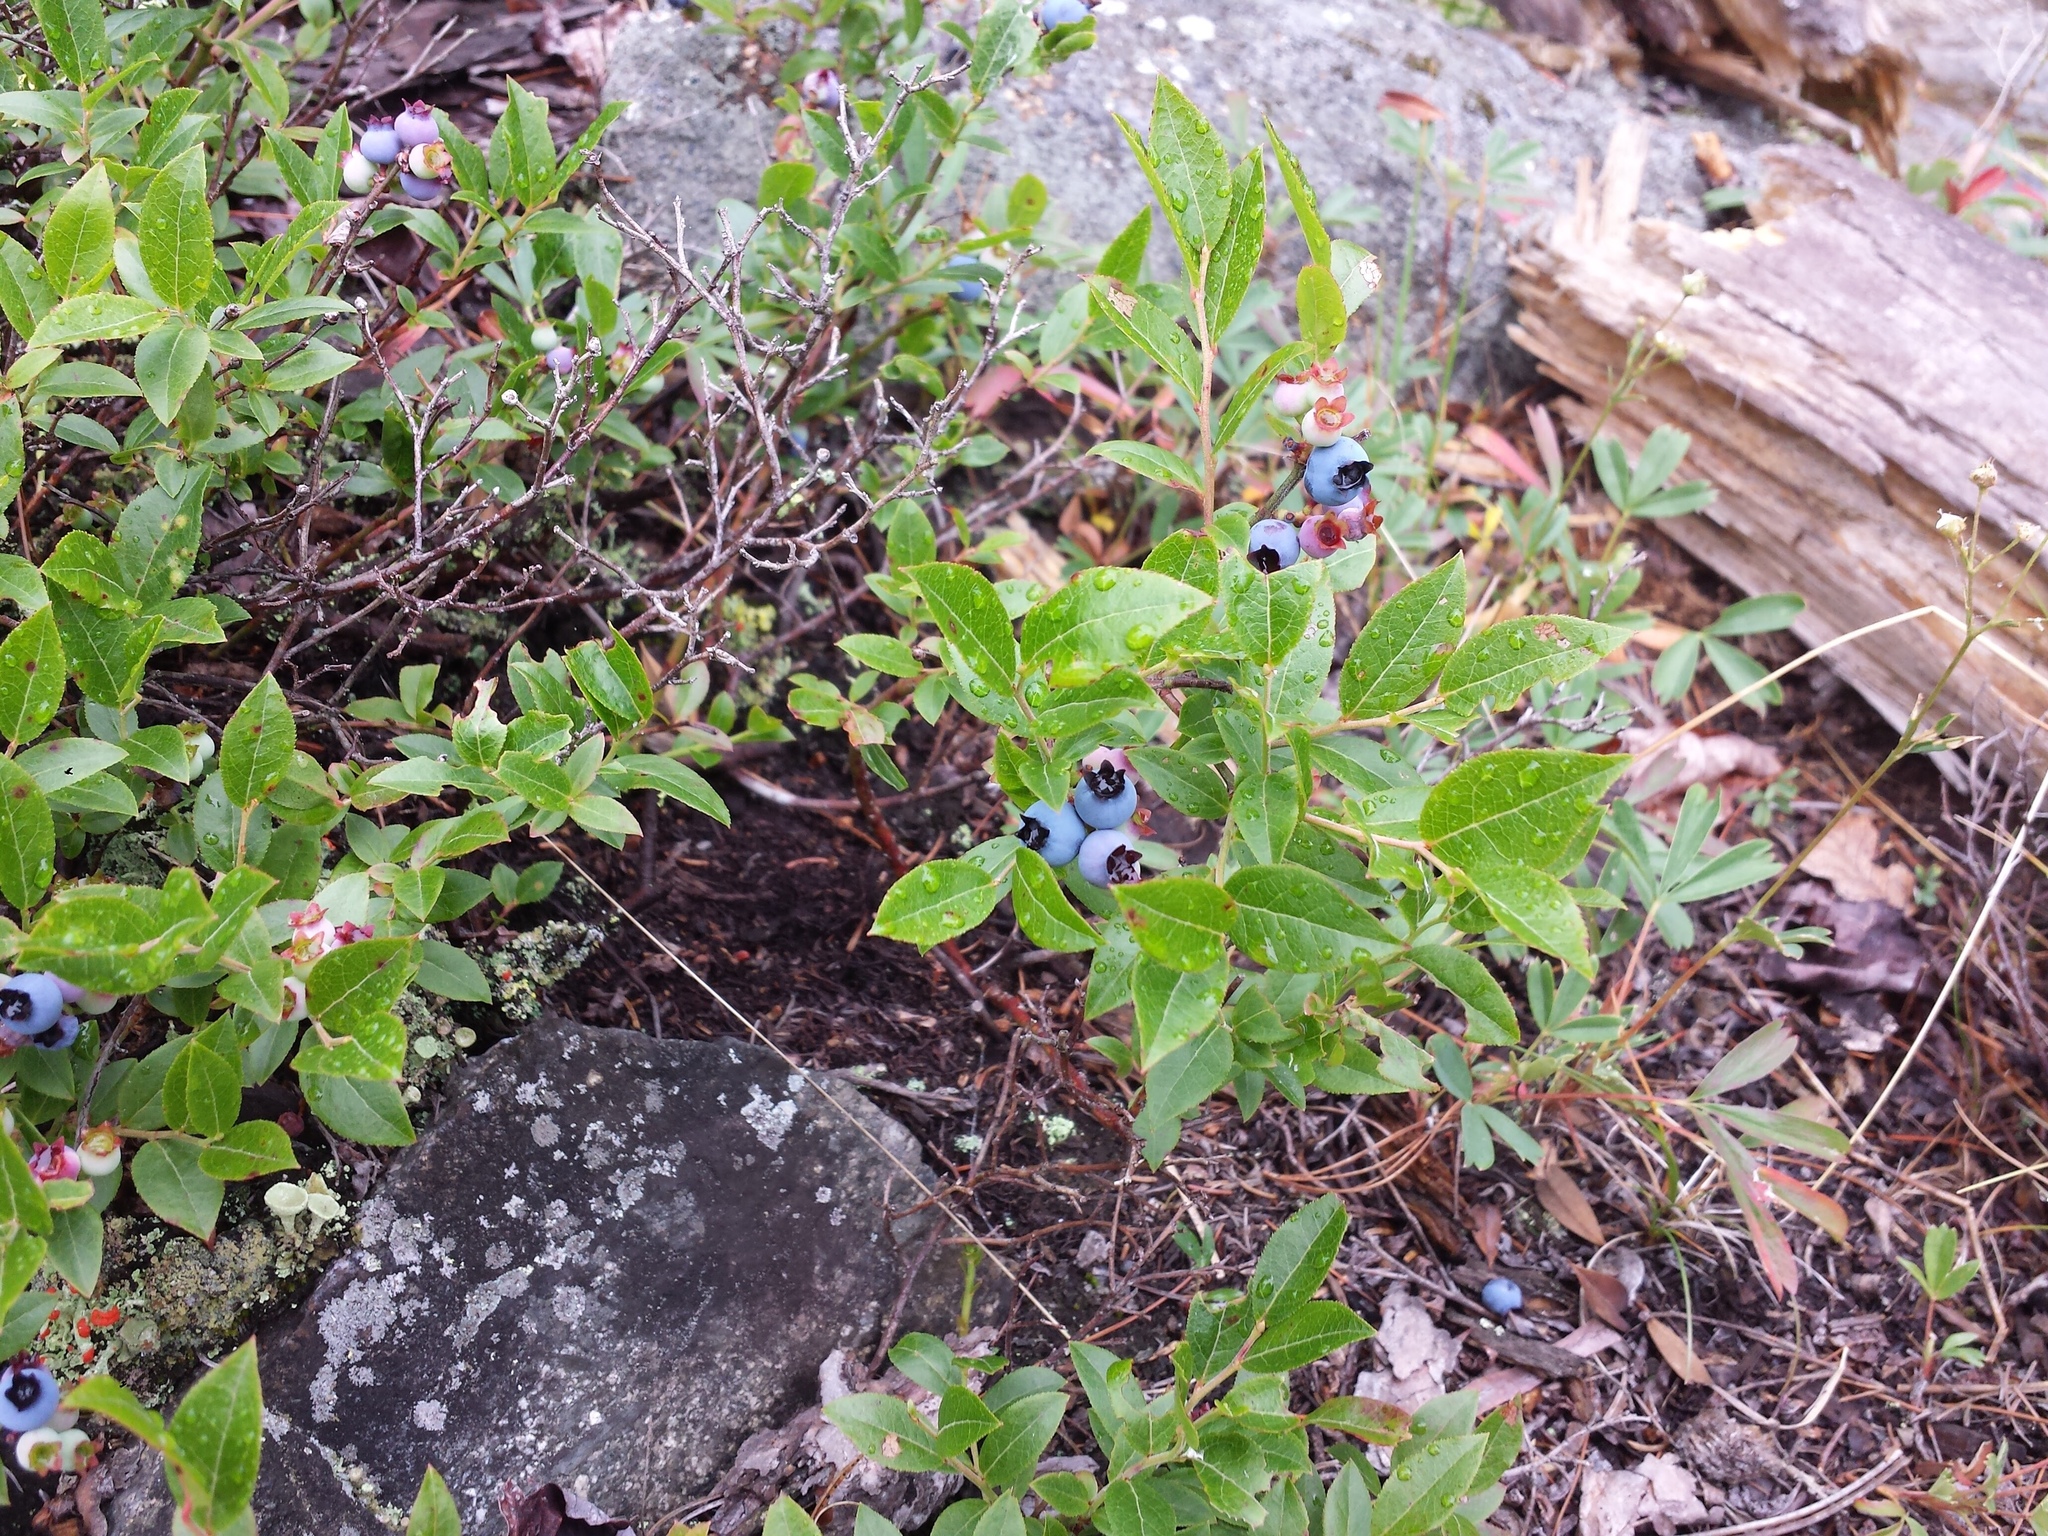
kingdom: Plantae
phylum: Tracheophyta
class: Magnoliopsida
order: Ericales
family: Ericaceae
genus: Vaccinium
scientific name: Vaccinium angustifolium
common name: Early lowbush blueberry
